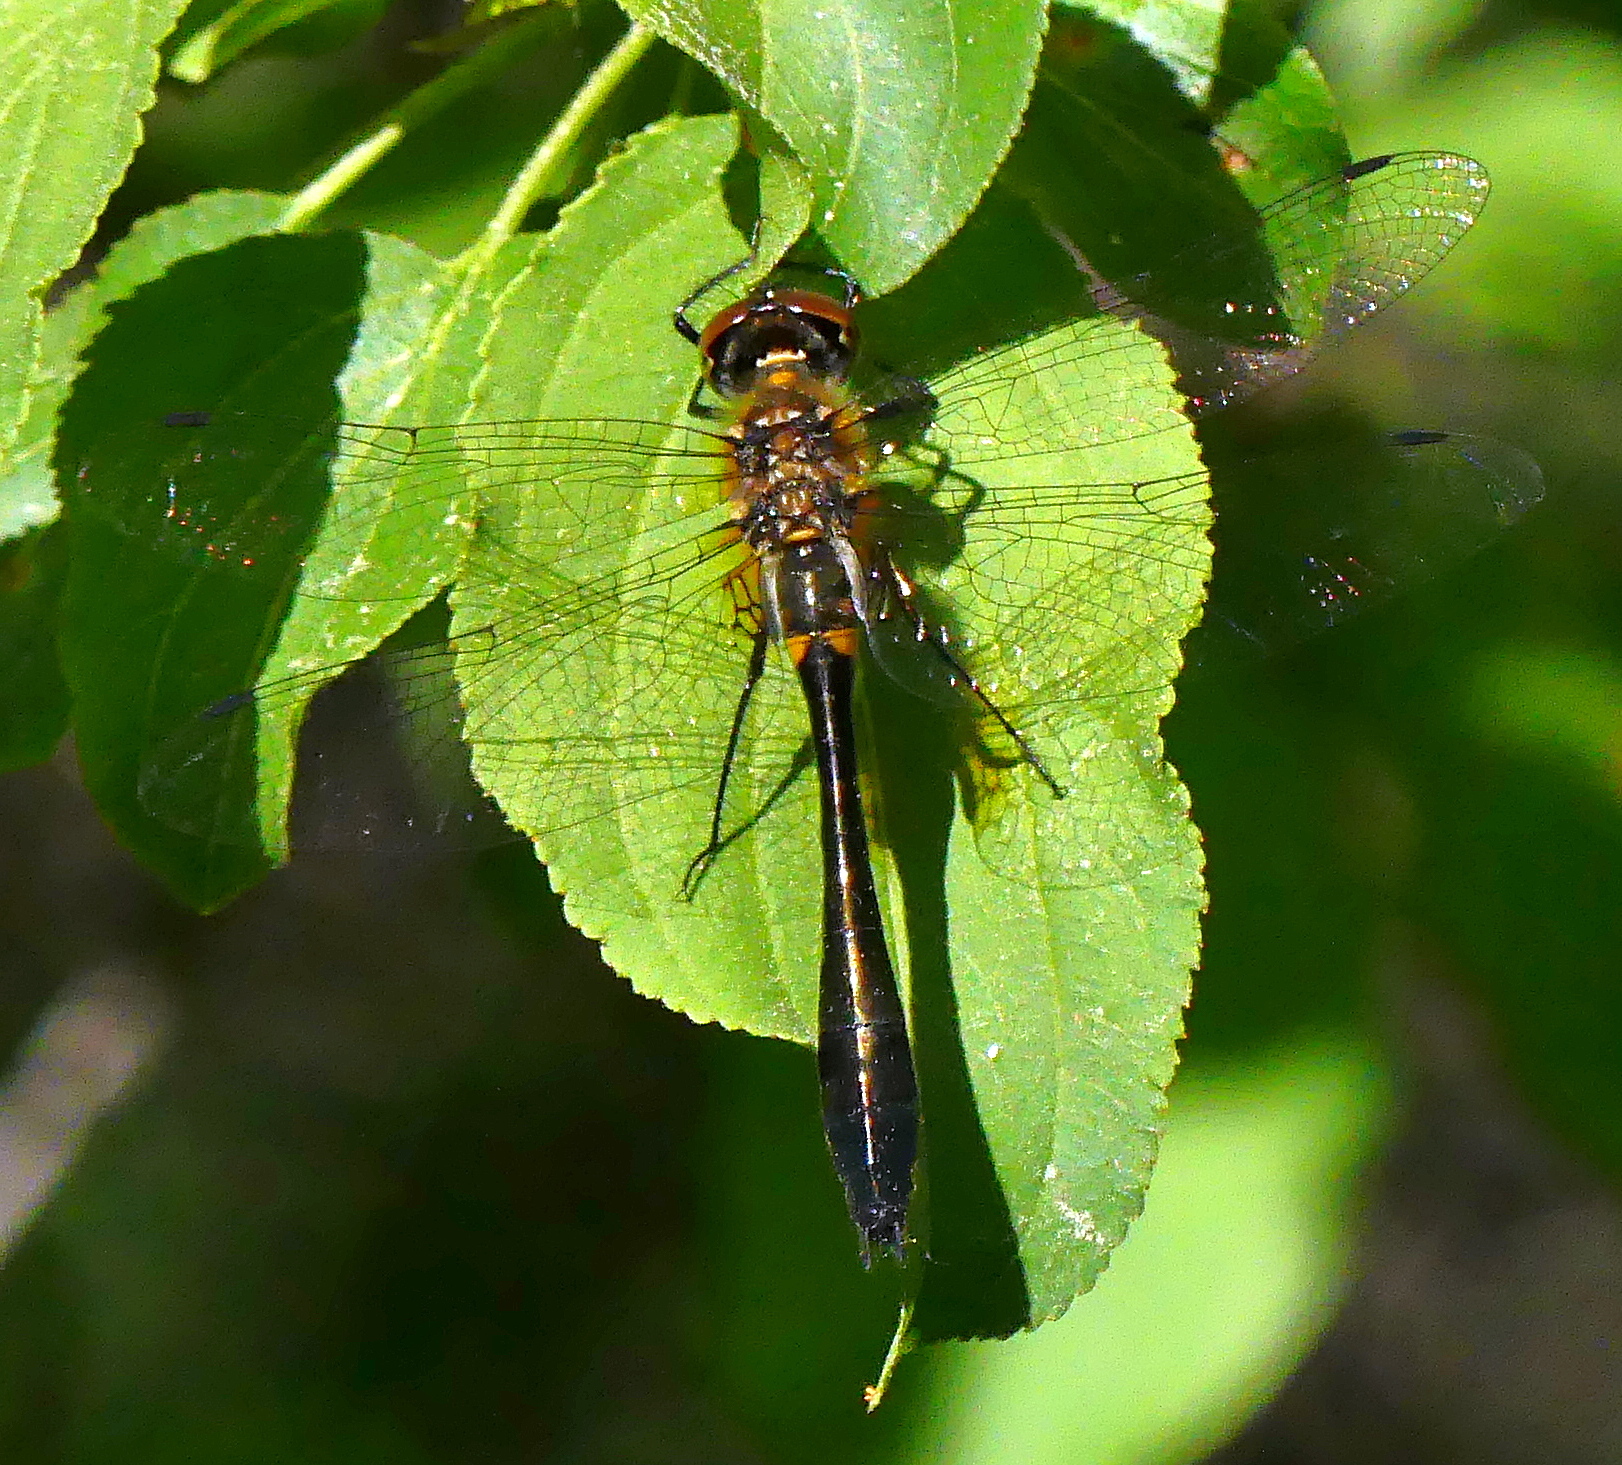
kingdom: Animalia
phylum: Arthropoda
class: Insecta
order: Odonata
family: Corduliidae
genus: Dorocordulia
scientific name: Dorocordulia libera
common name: Racket-tailed emerald
